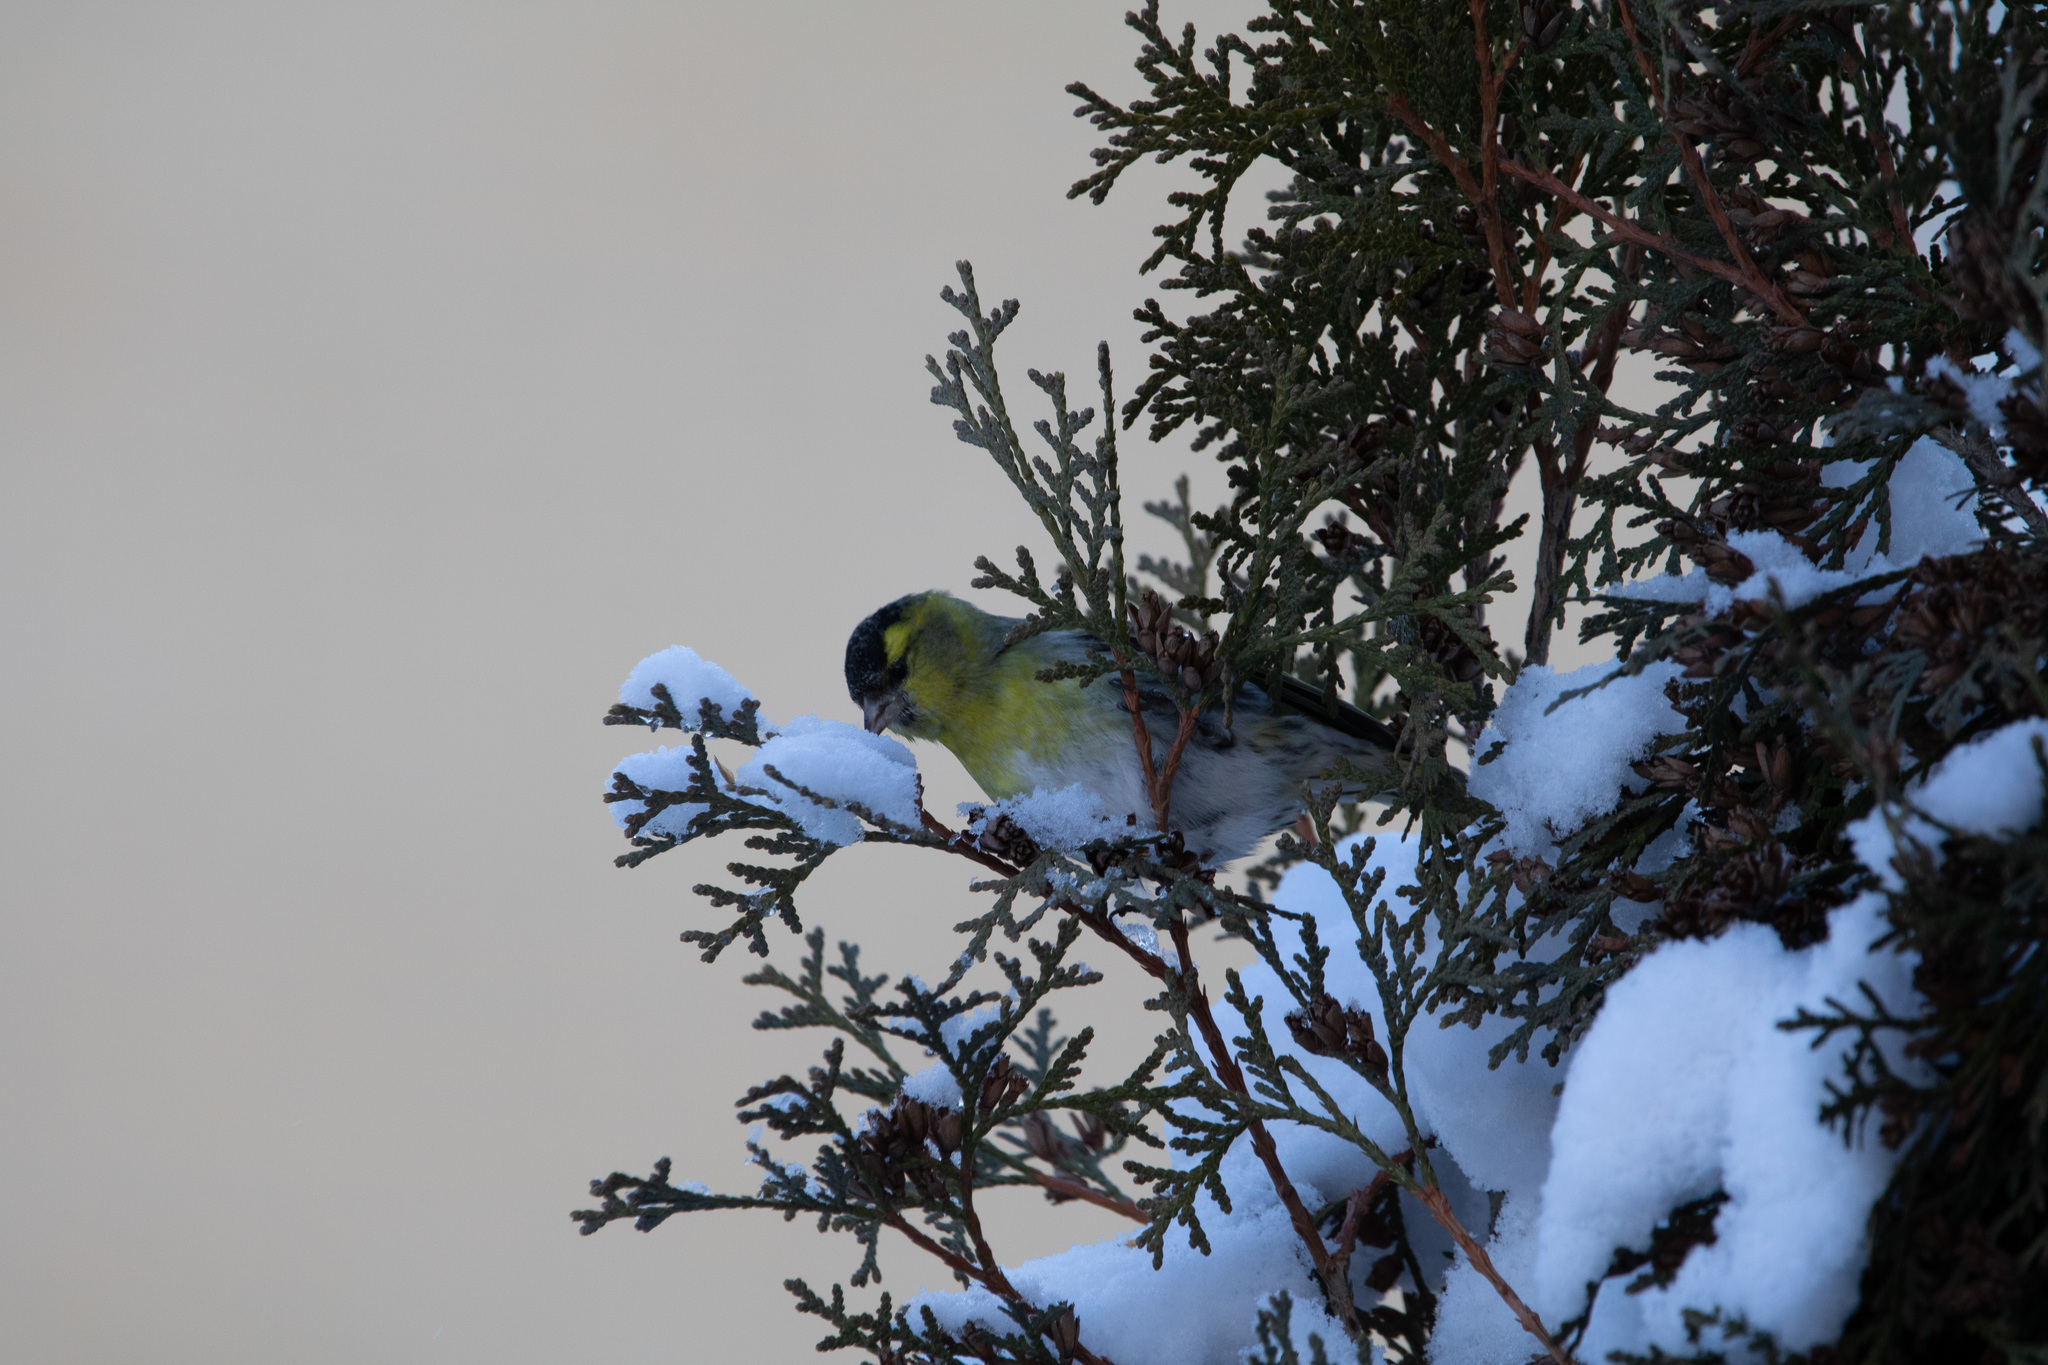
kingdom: Animalia
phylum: Chordata
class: Aves
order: Passeriformes
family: Fringillidae
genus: Spinus
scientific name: Spinus spinus
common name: Eurasian siskin
